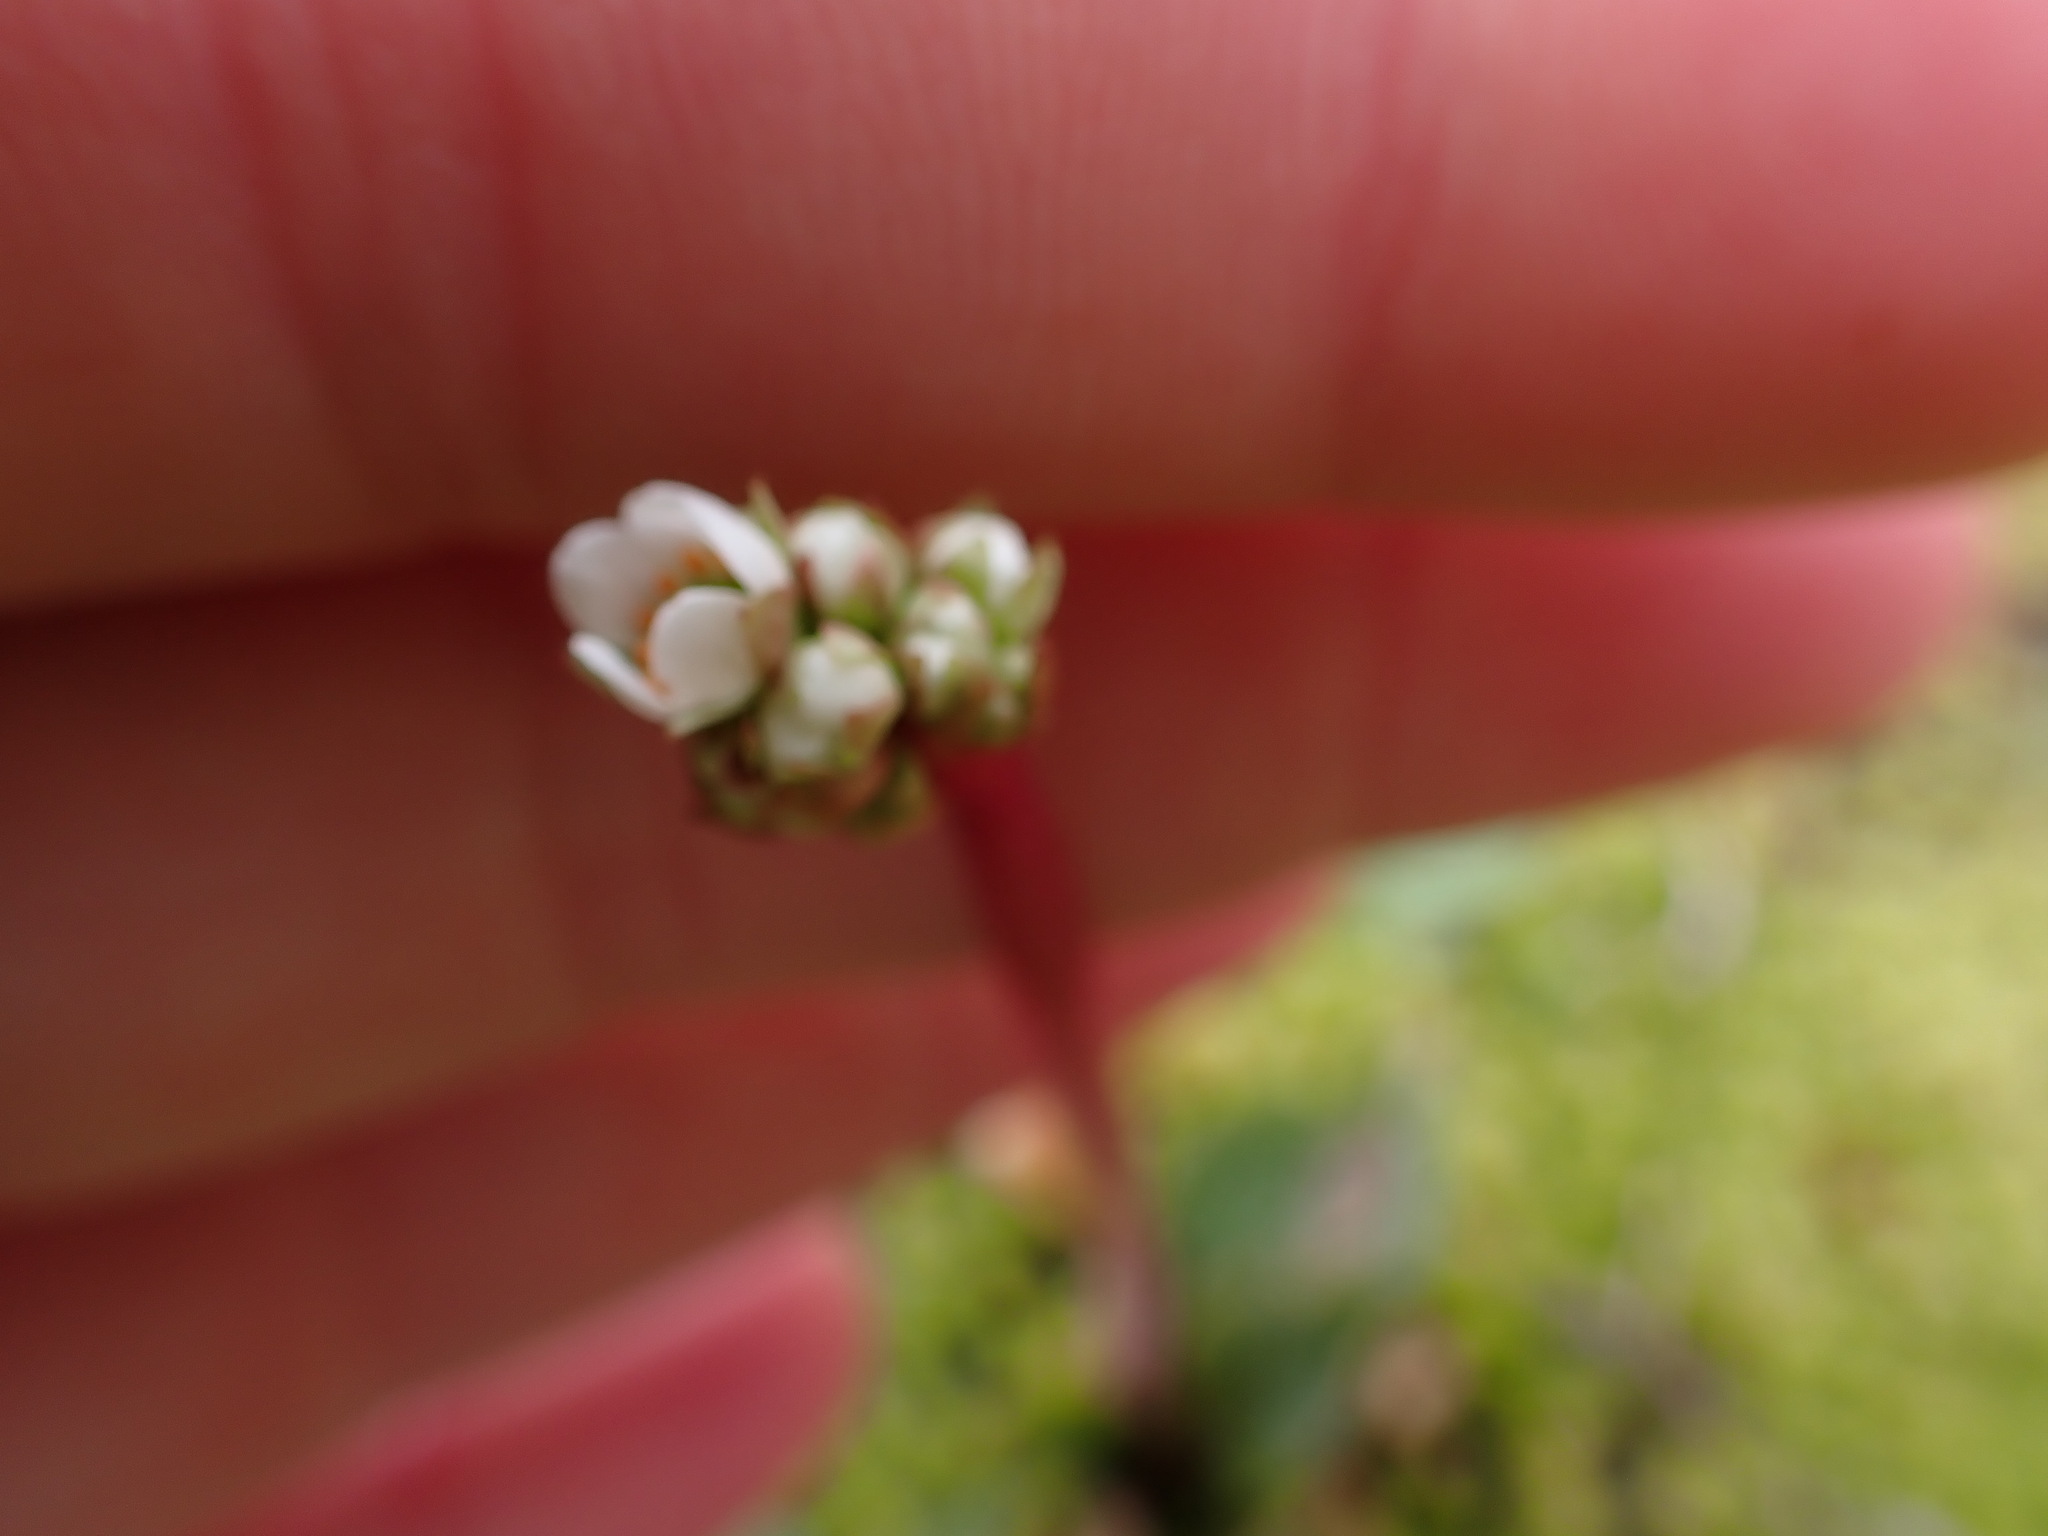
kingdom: Plantae
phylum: Tracheophyta
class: Magnoliopsida
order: Saxifragales
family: Saxifragaceae
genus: Micranthes
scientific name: Micranthes integrifolia
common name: Wholeleaf saxifrage
